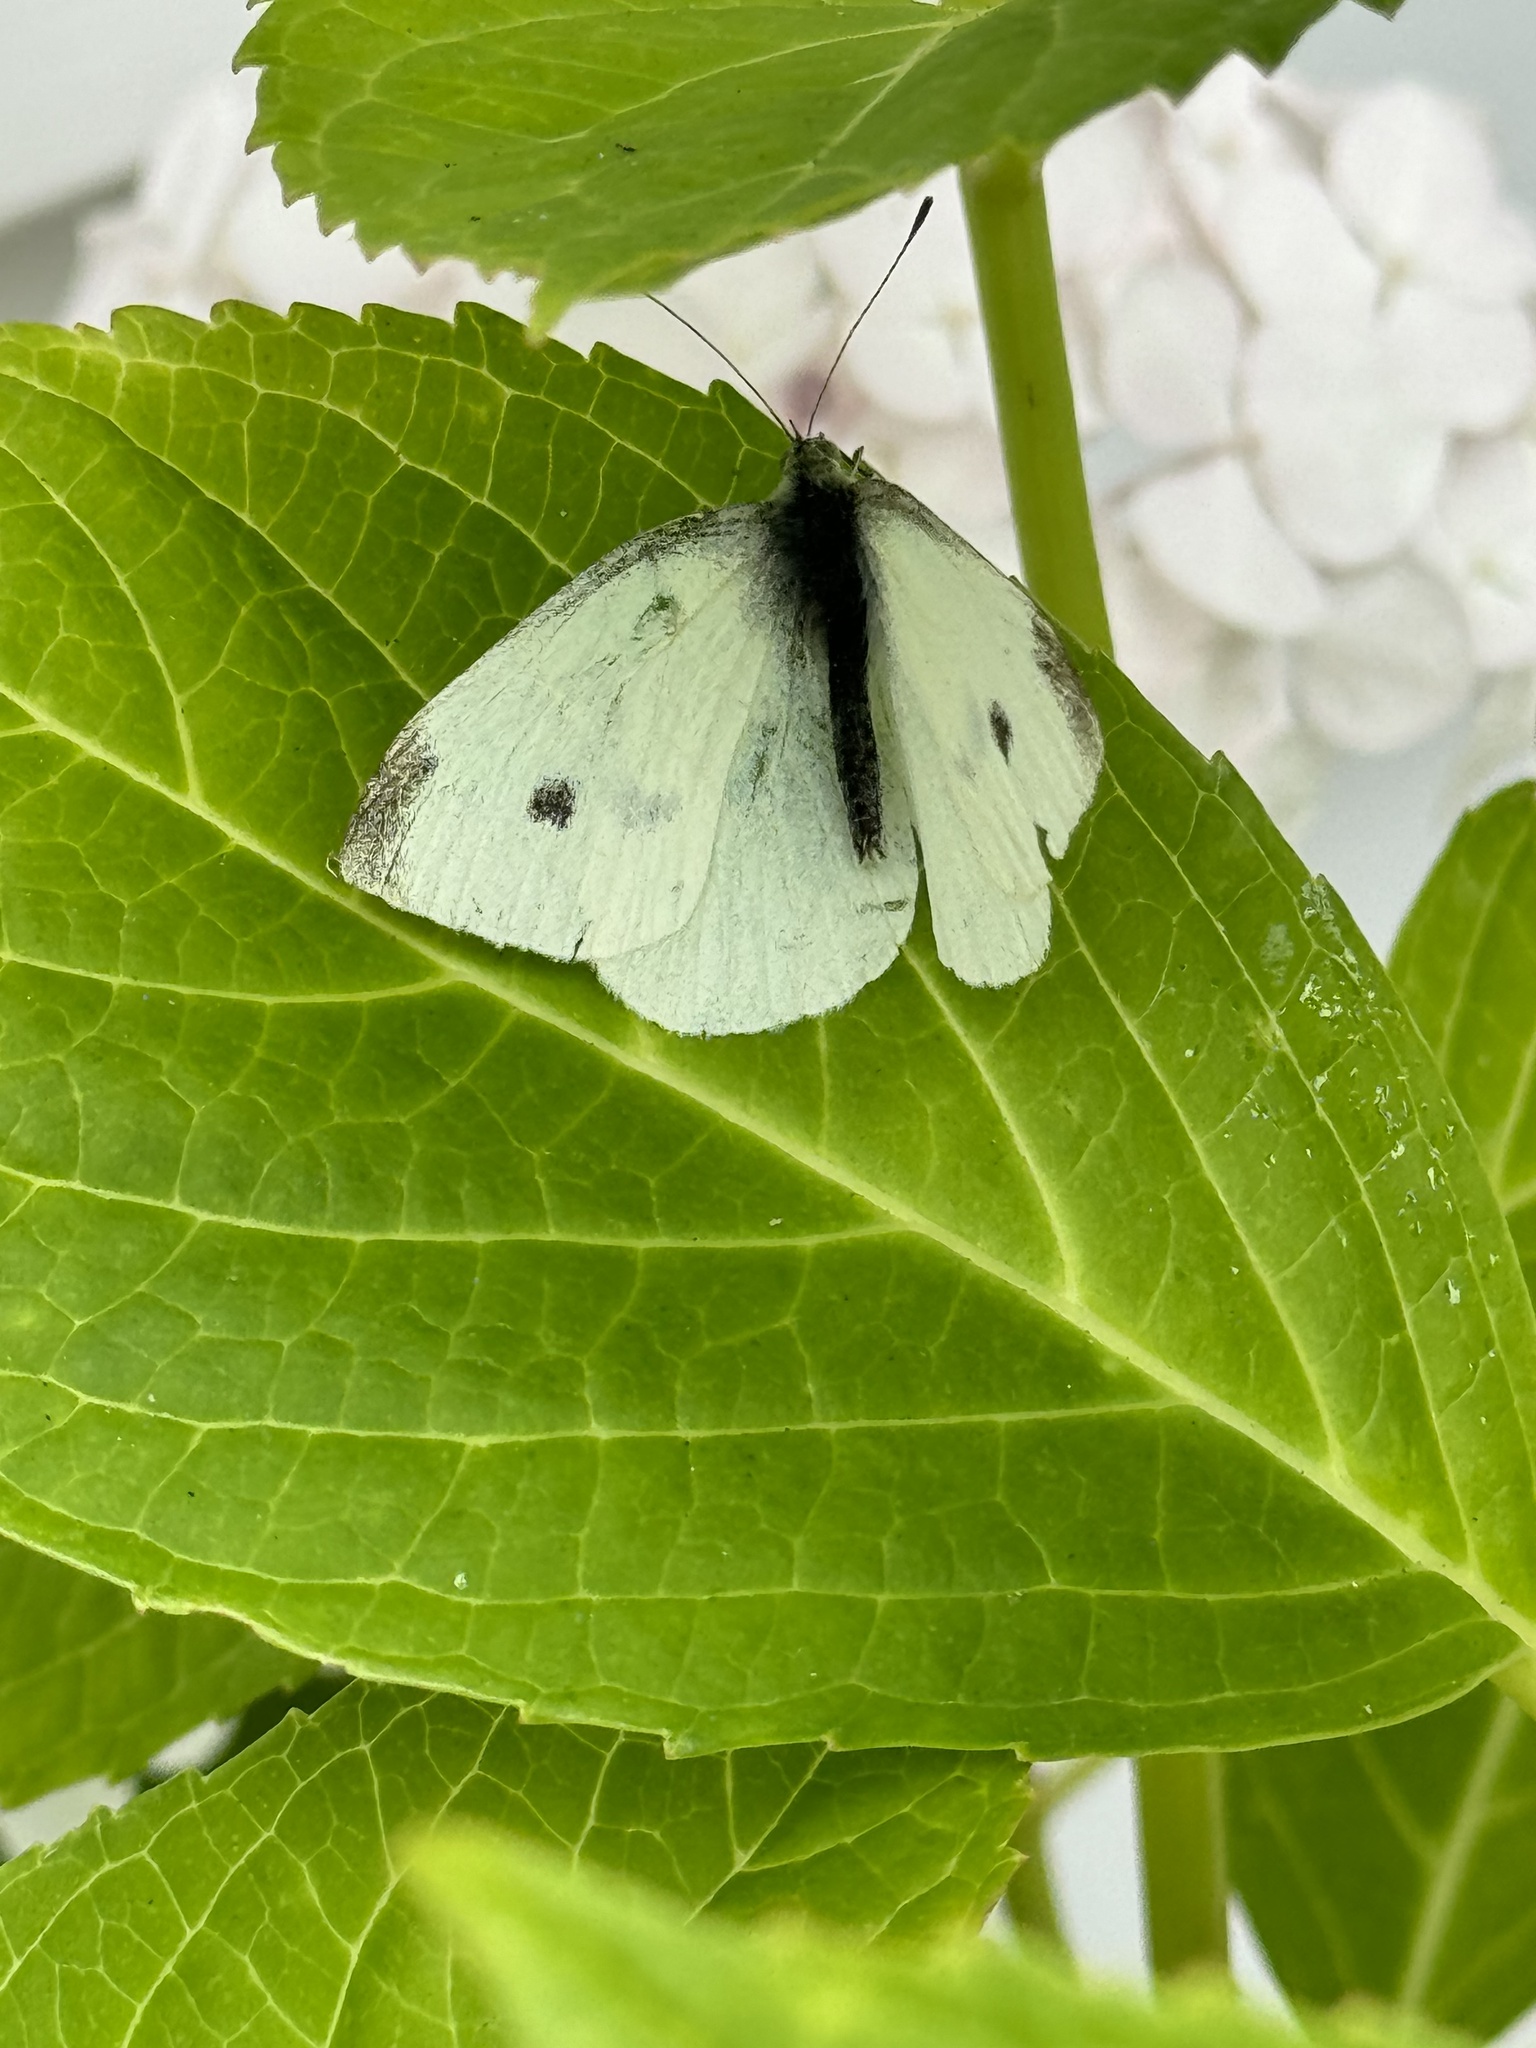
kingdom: Animalia
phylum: Arthropoda
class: Insecta
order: Lepidoptera
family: Pieridae
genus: Pieris
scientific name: Pieris rapae
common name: Small white
